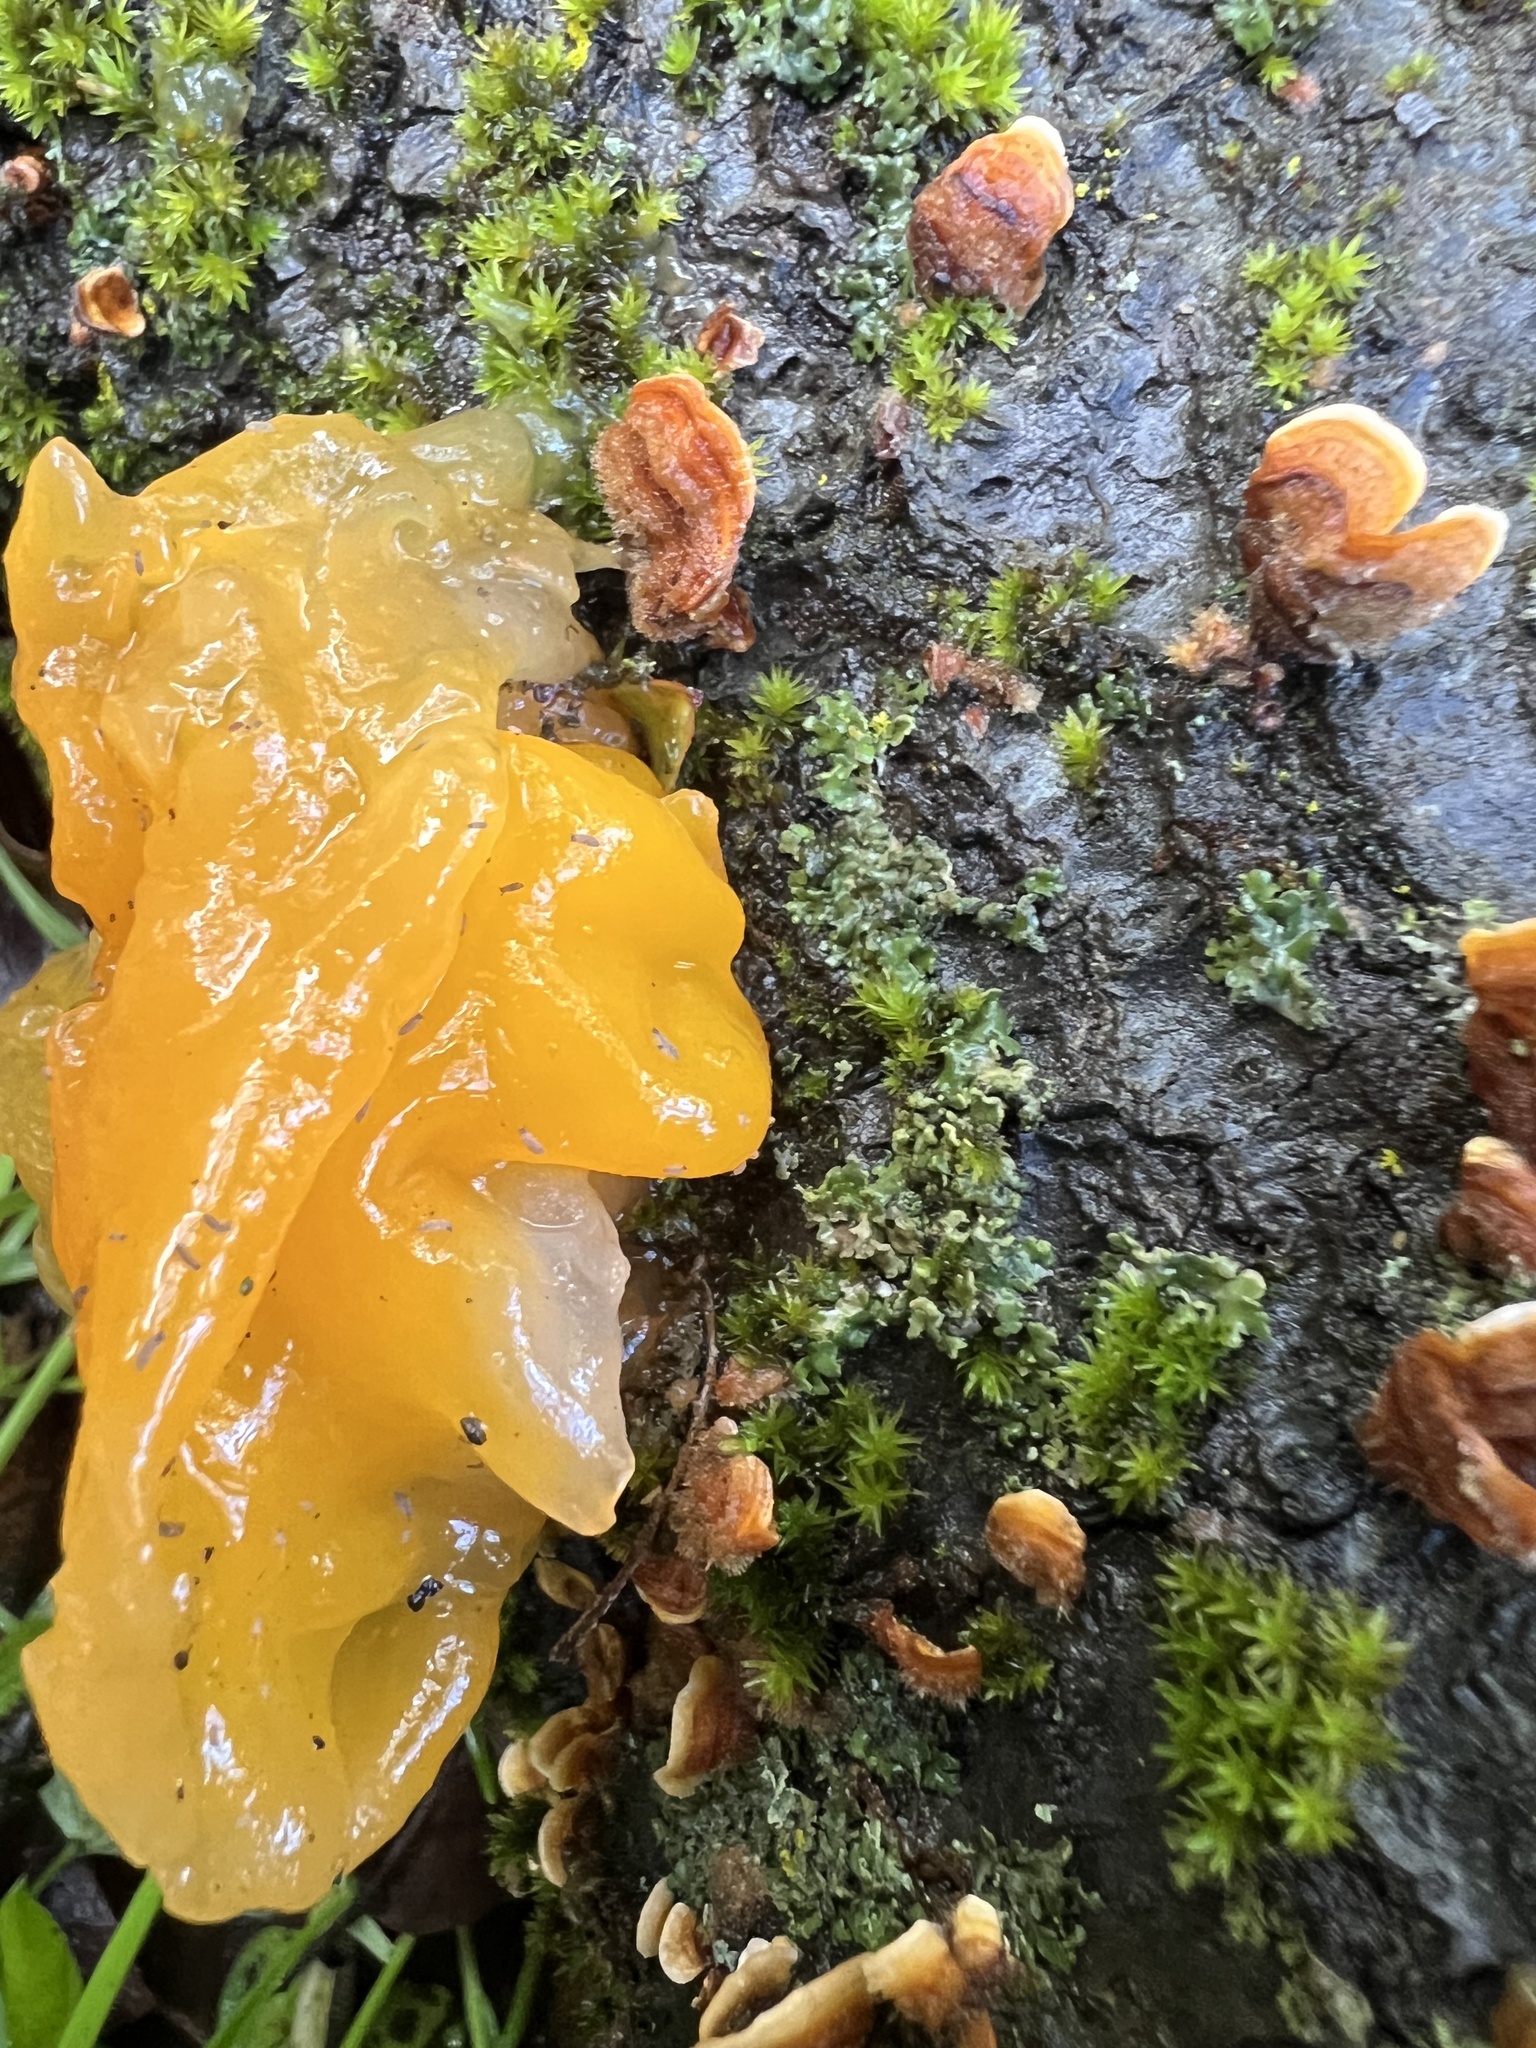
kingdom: Fungi
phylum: Basidiomycota
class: Tremellomycetes
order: Tremellales
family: Naemateliaceae
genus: Naematelia
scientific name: Naematelia aurantia
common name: Golden ear
